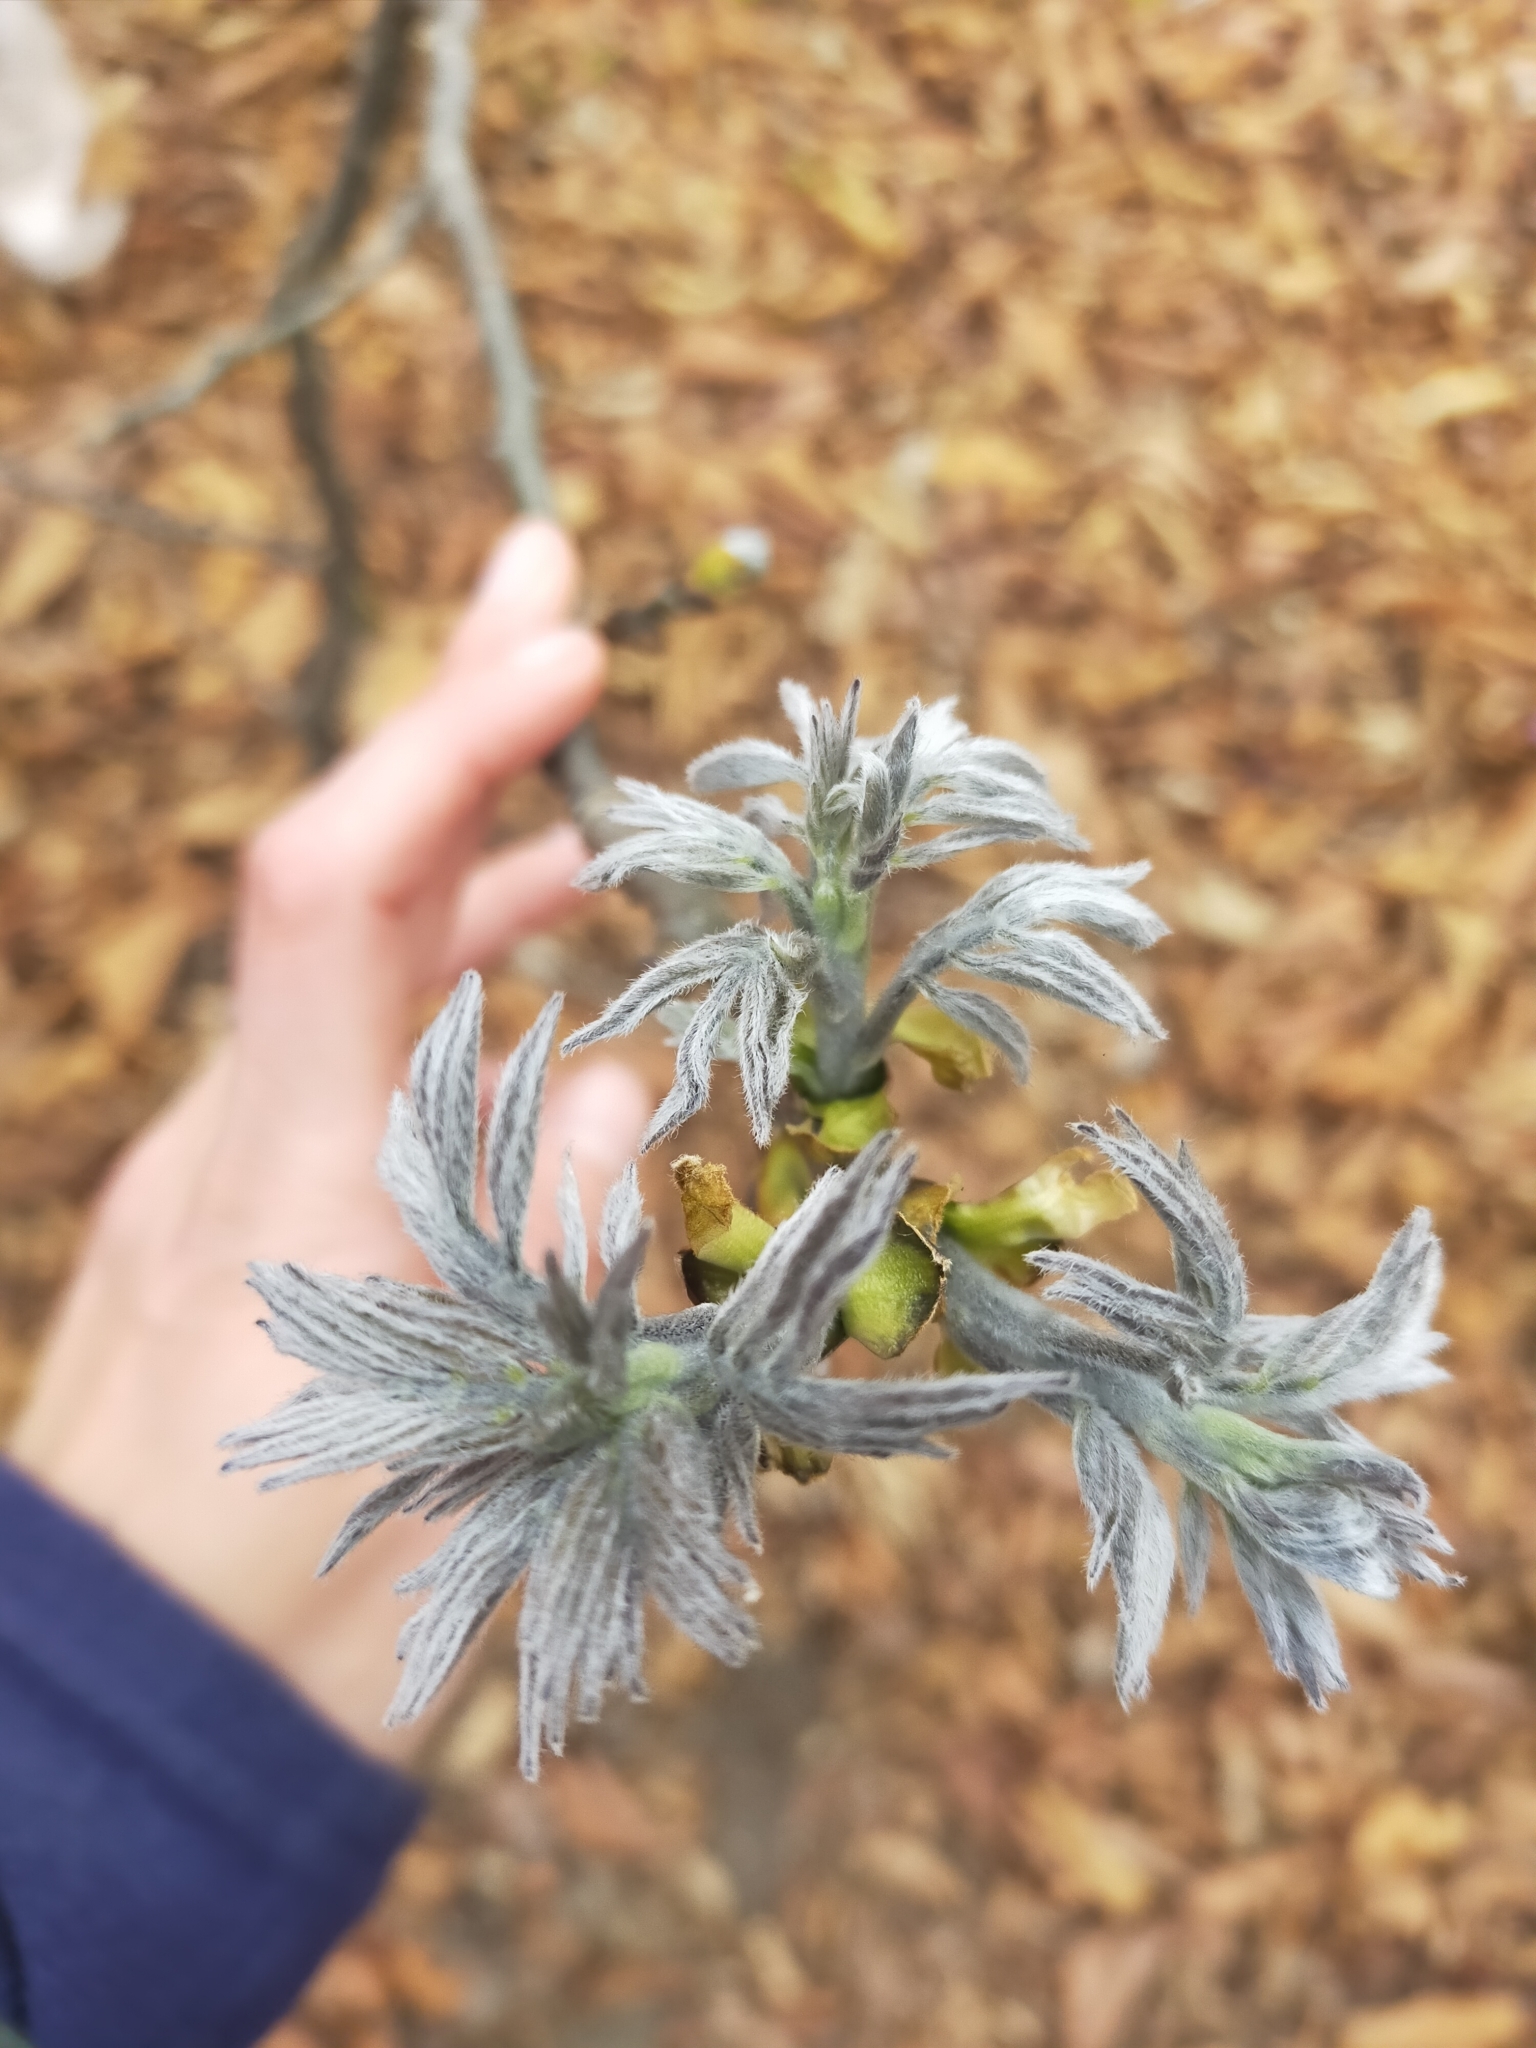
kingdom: Plantae
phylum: Tracheophyta
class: Magnoliopsida
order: Fabales
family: Fabaceae
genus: Maackia
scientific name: Maackia amurensis
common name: Amur maackia
